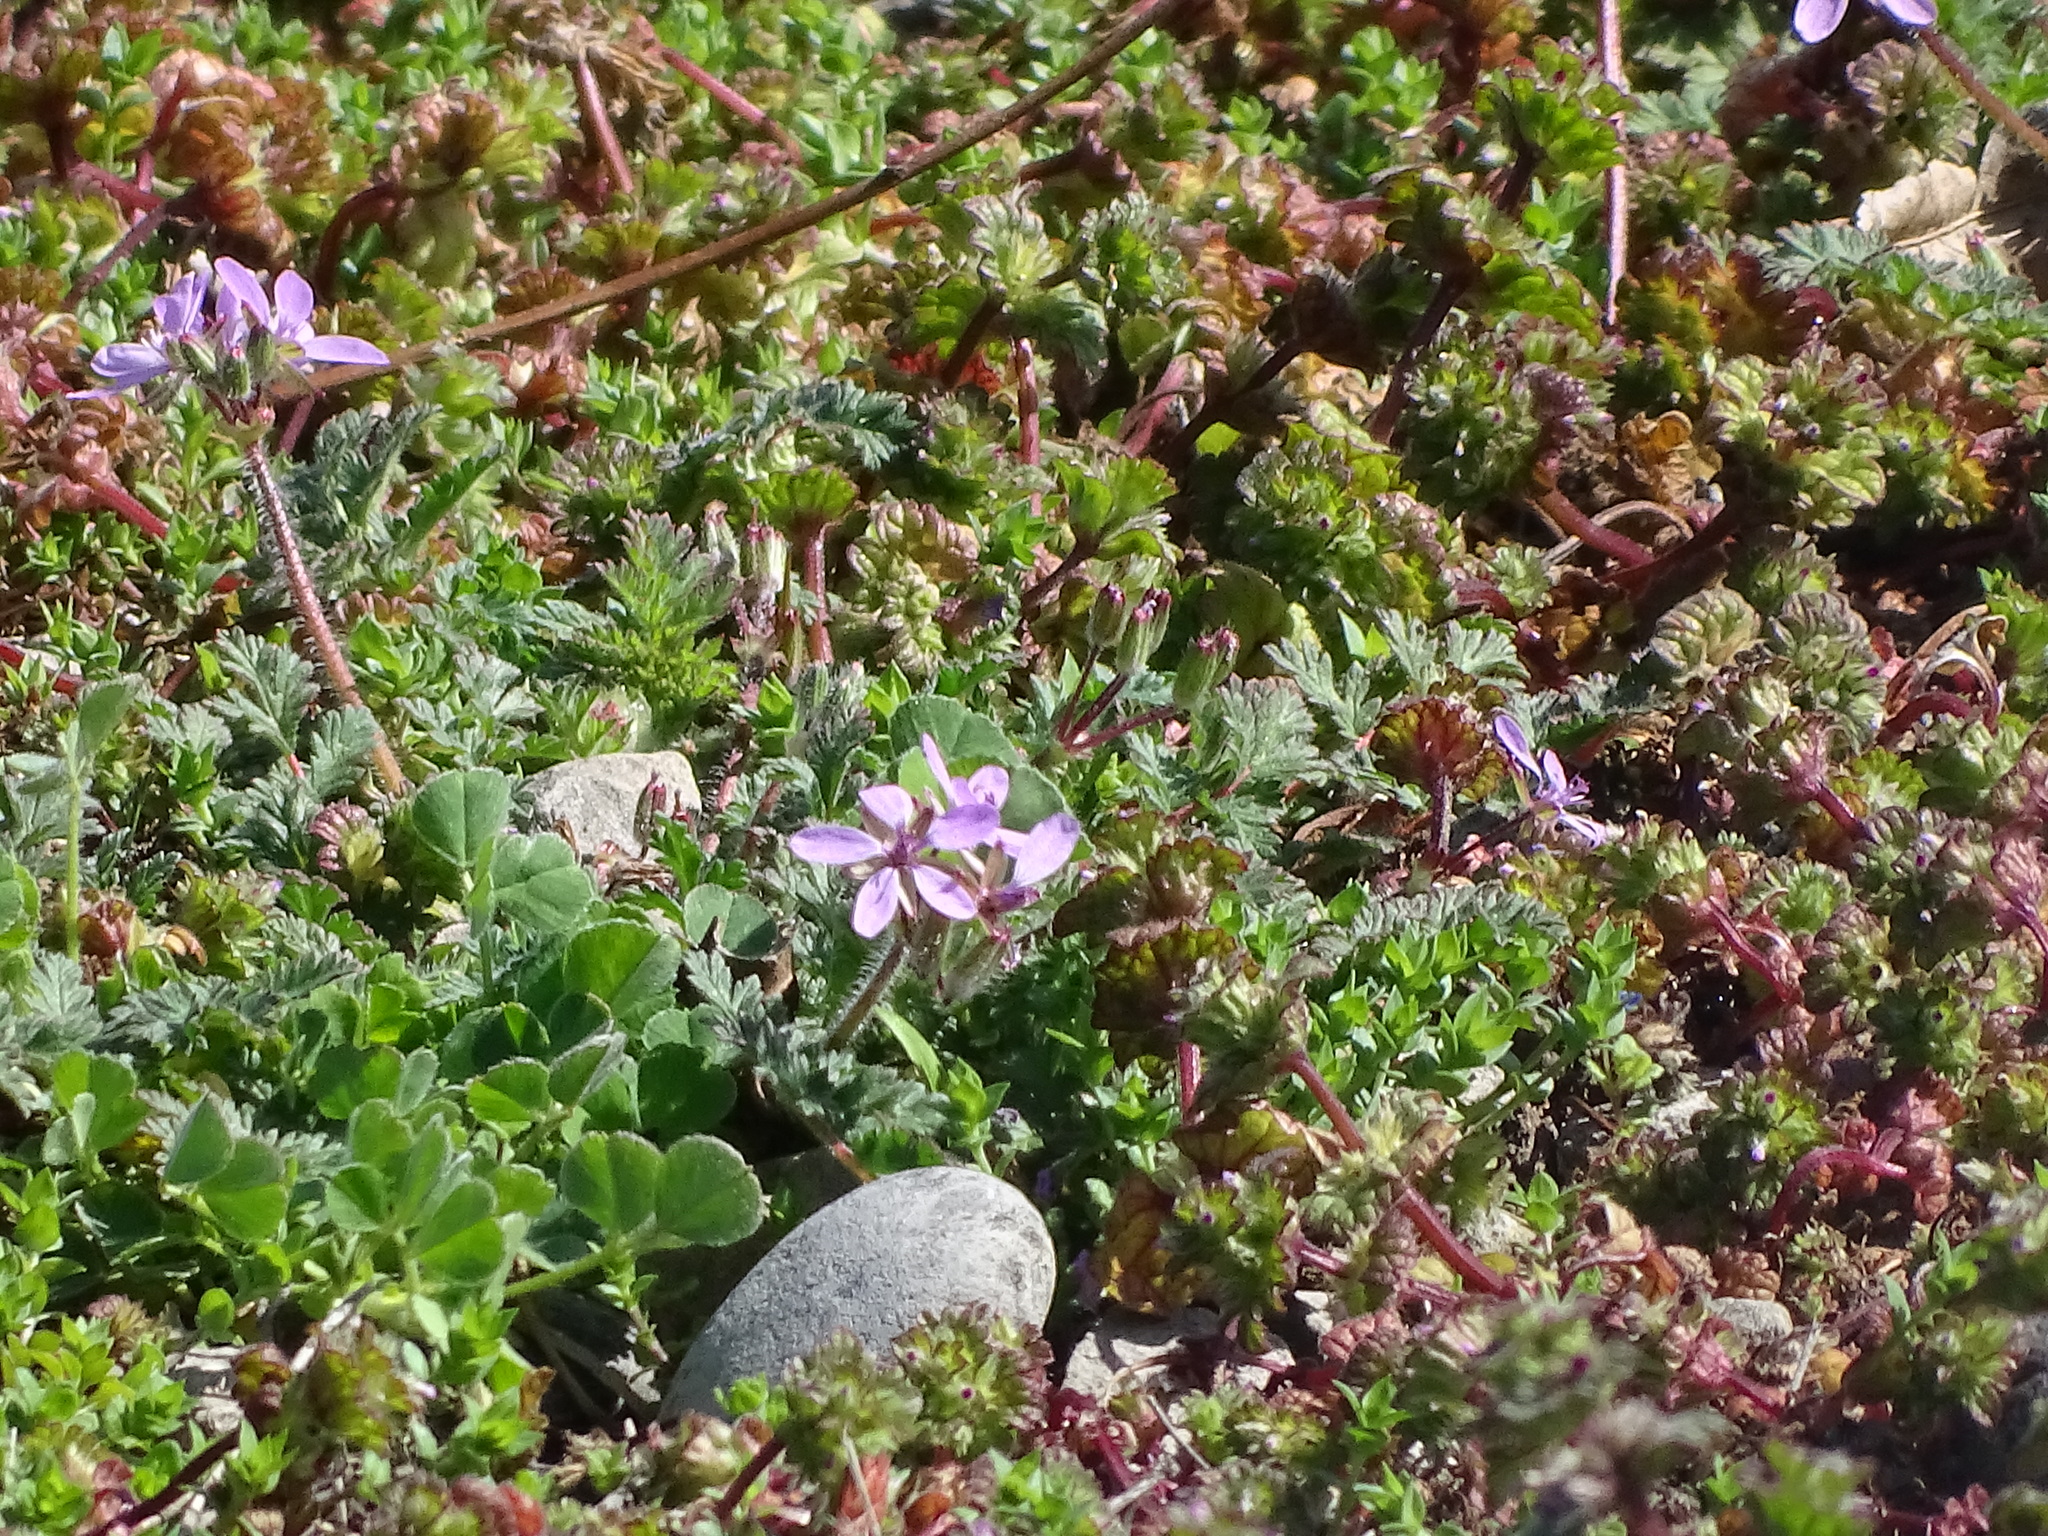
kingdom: Plantae
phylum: Tracheophyta
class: Magnoliopsida
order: Geraniales
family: Geraniaceae
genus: Erodium
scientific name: Erodium cicutarium
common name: Common stork's-bill
